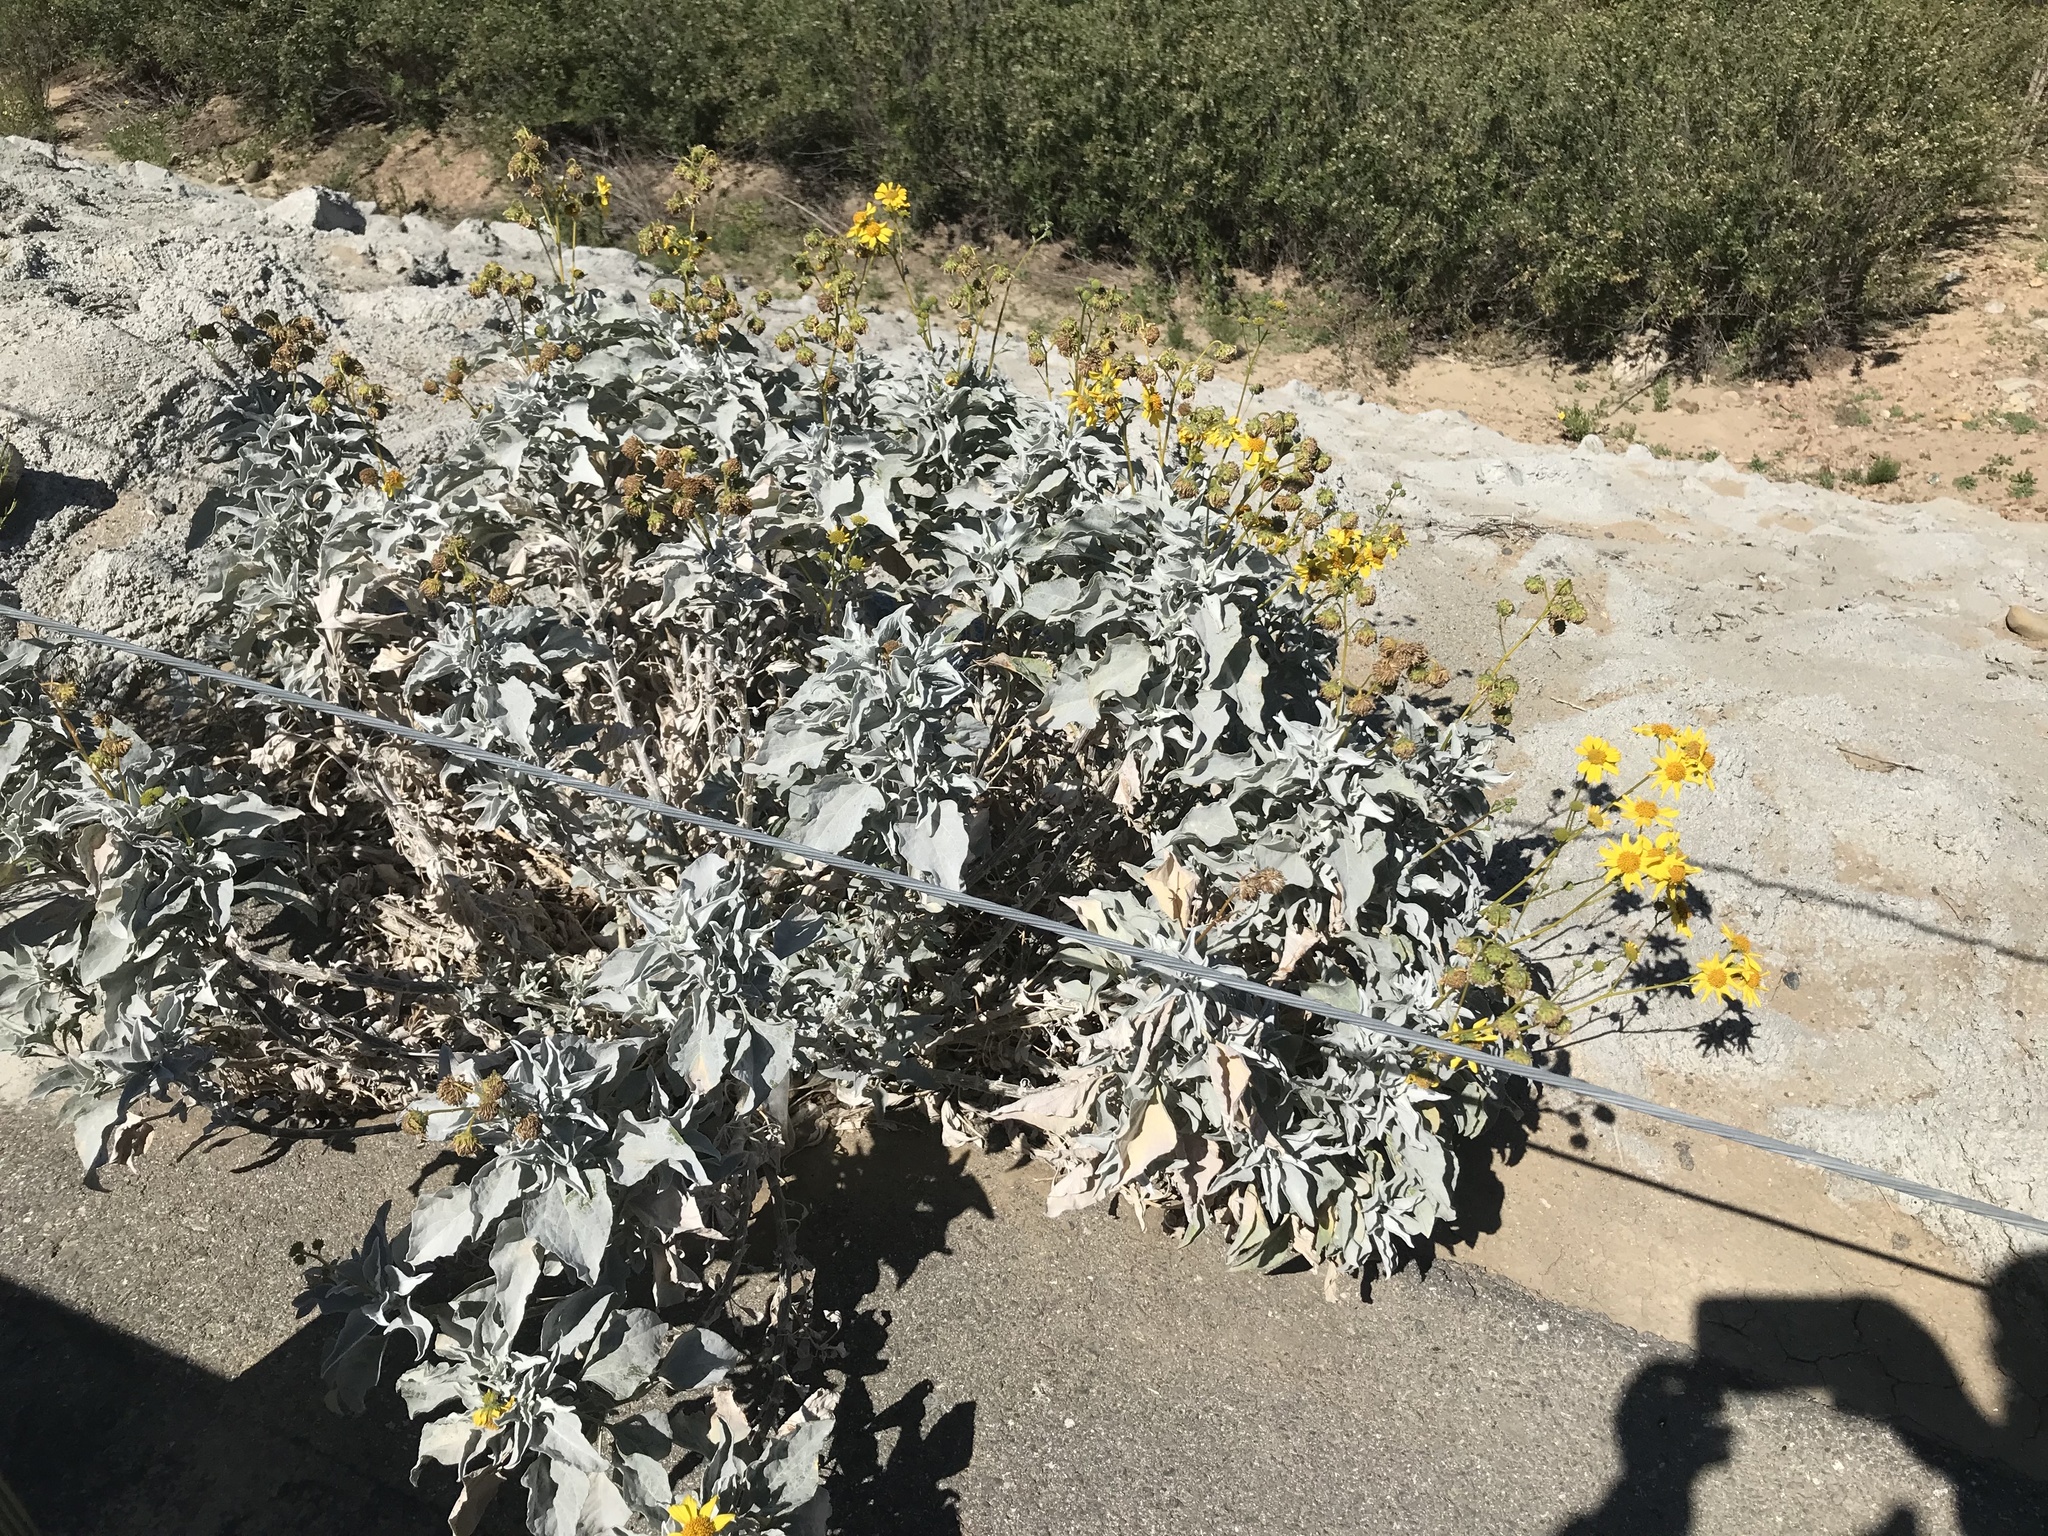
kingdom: Plantae
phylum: Tracheophyta
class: Magnoliopsida
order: Asterales
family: Asteraceae
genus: Encelia
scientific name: Encelia farinosa
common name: Brittlebush
